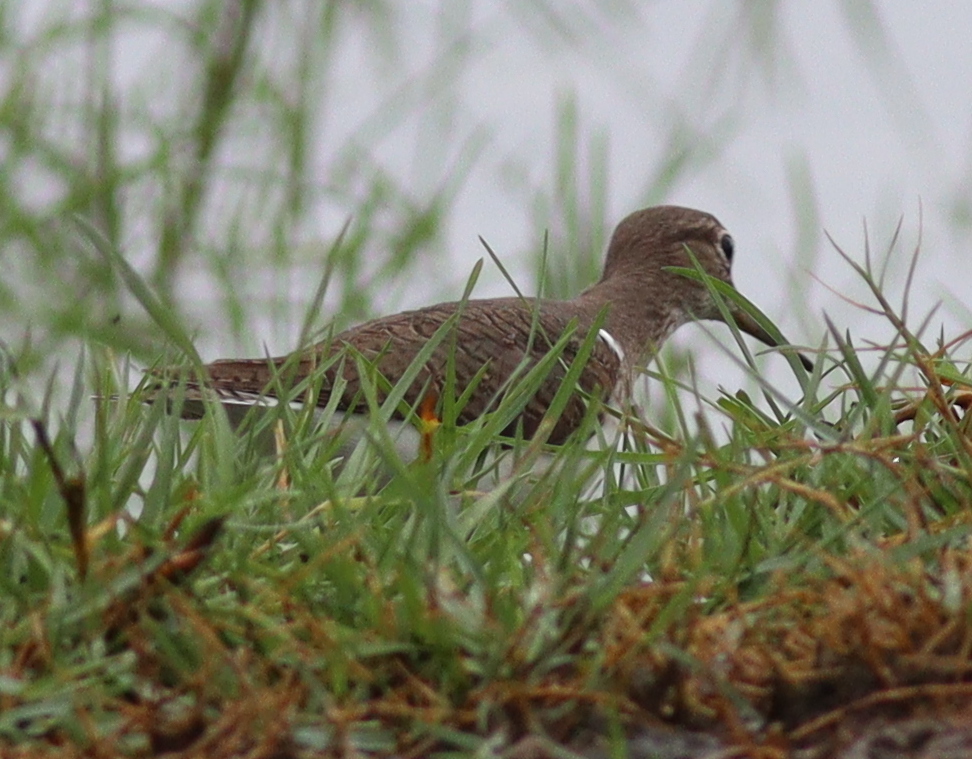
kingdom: Animalia
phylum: Chordata
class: Aves
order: Charadriiformes
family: Scolopacidae
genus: Actitis
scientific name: Actitis hypoleucos
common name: Common sandpiper
